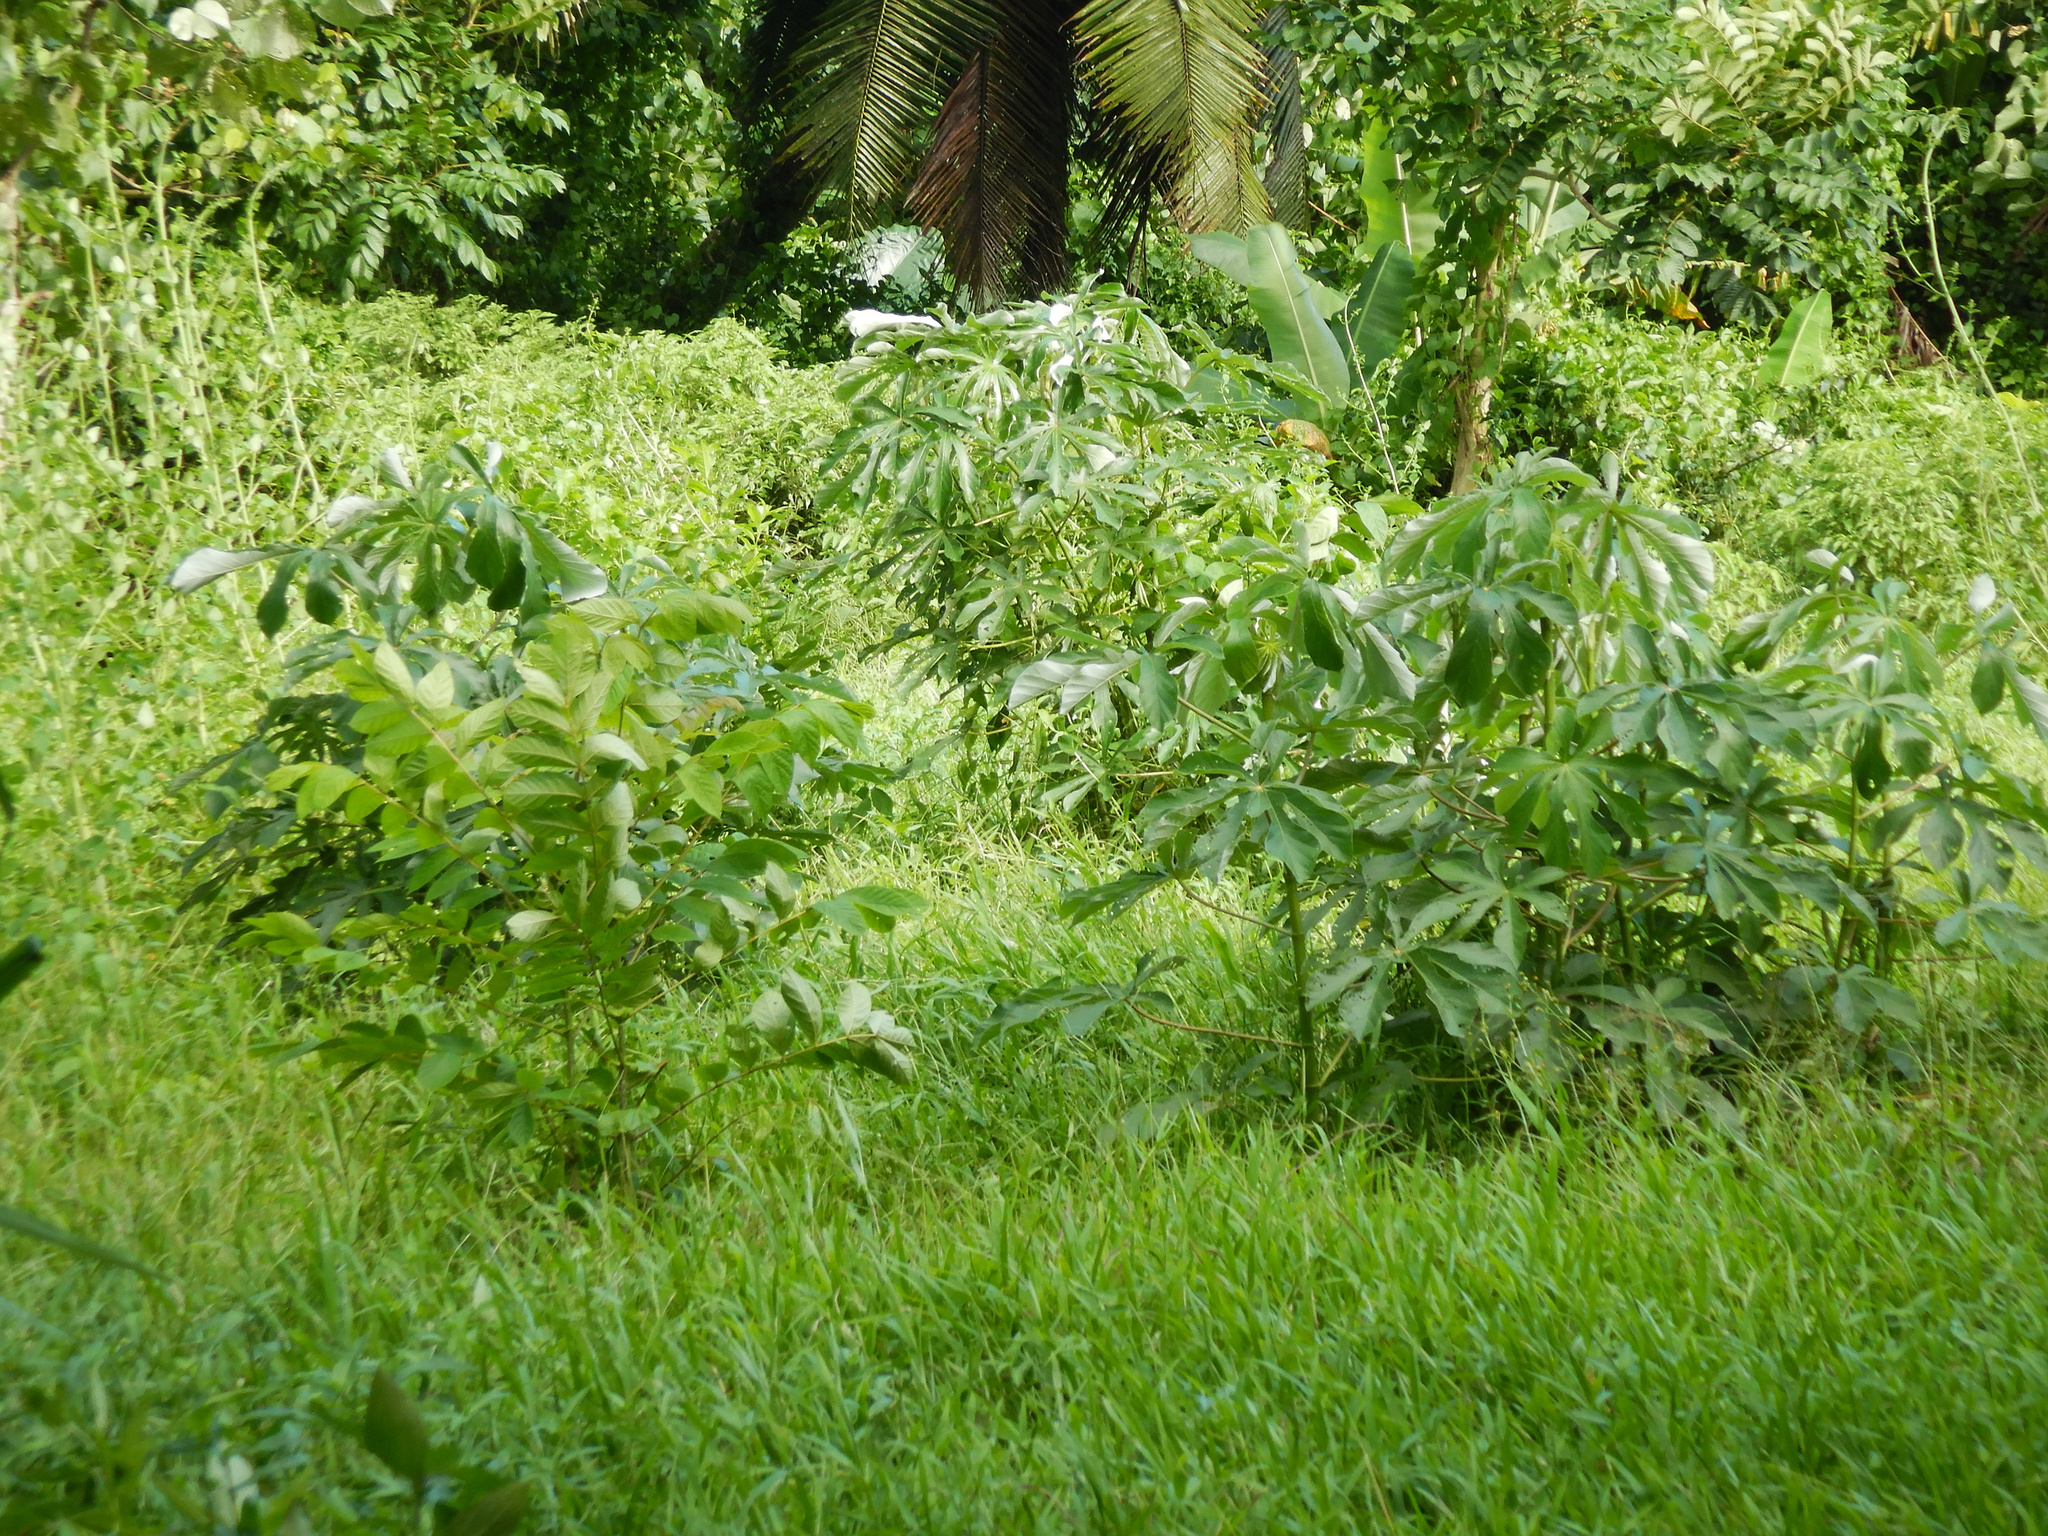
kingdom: Plantae
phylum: Tracheophyta
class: Magnoliopsida
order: Rosales
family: Urticaceae
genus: Cecropia
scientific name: Cecropia pachystachya
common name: Ambay pumpwood
